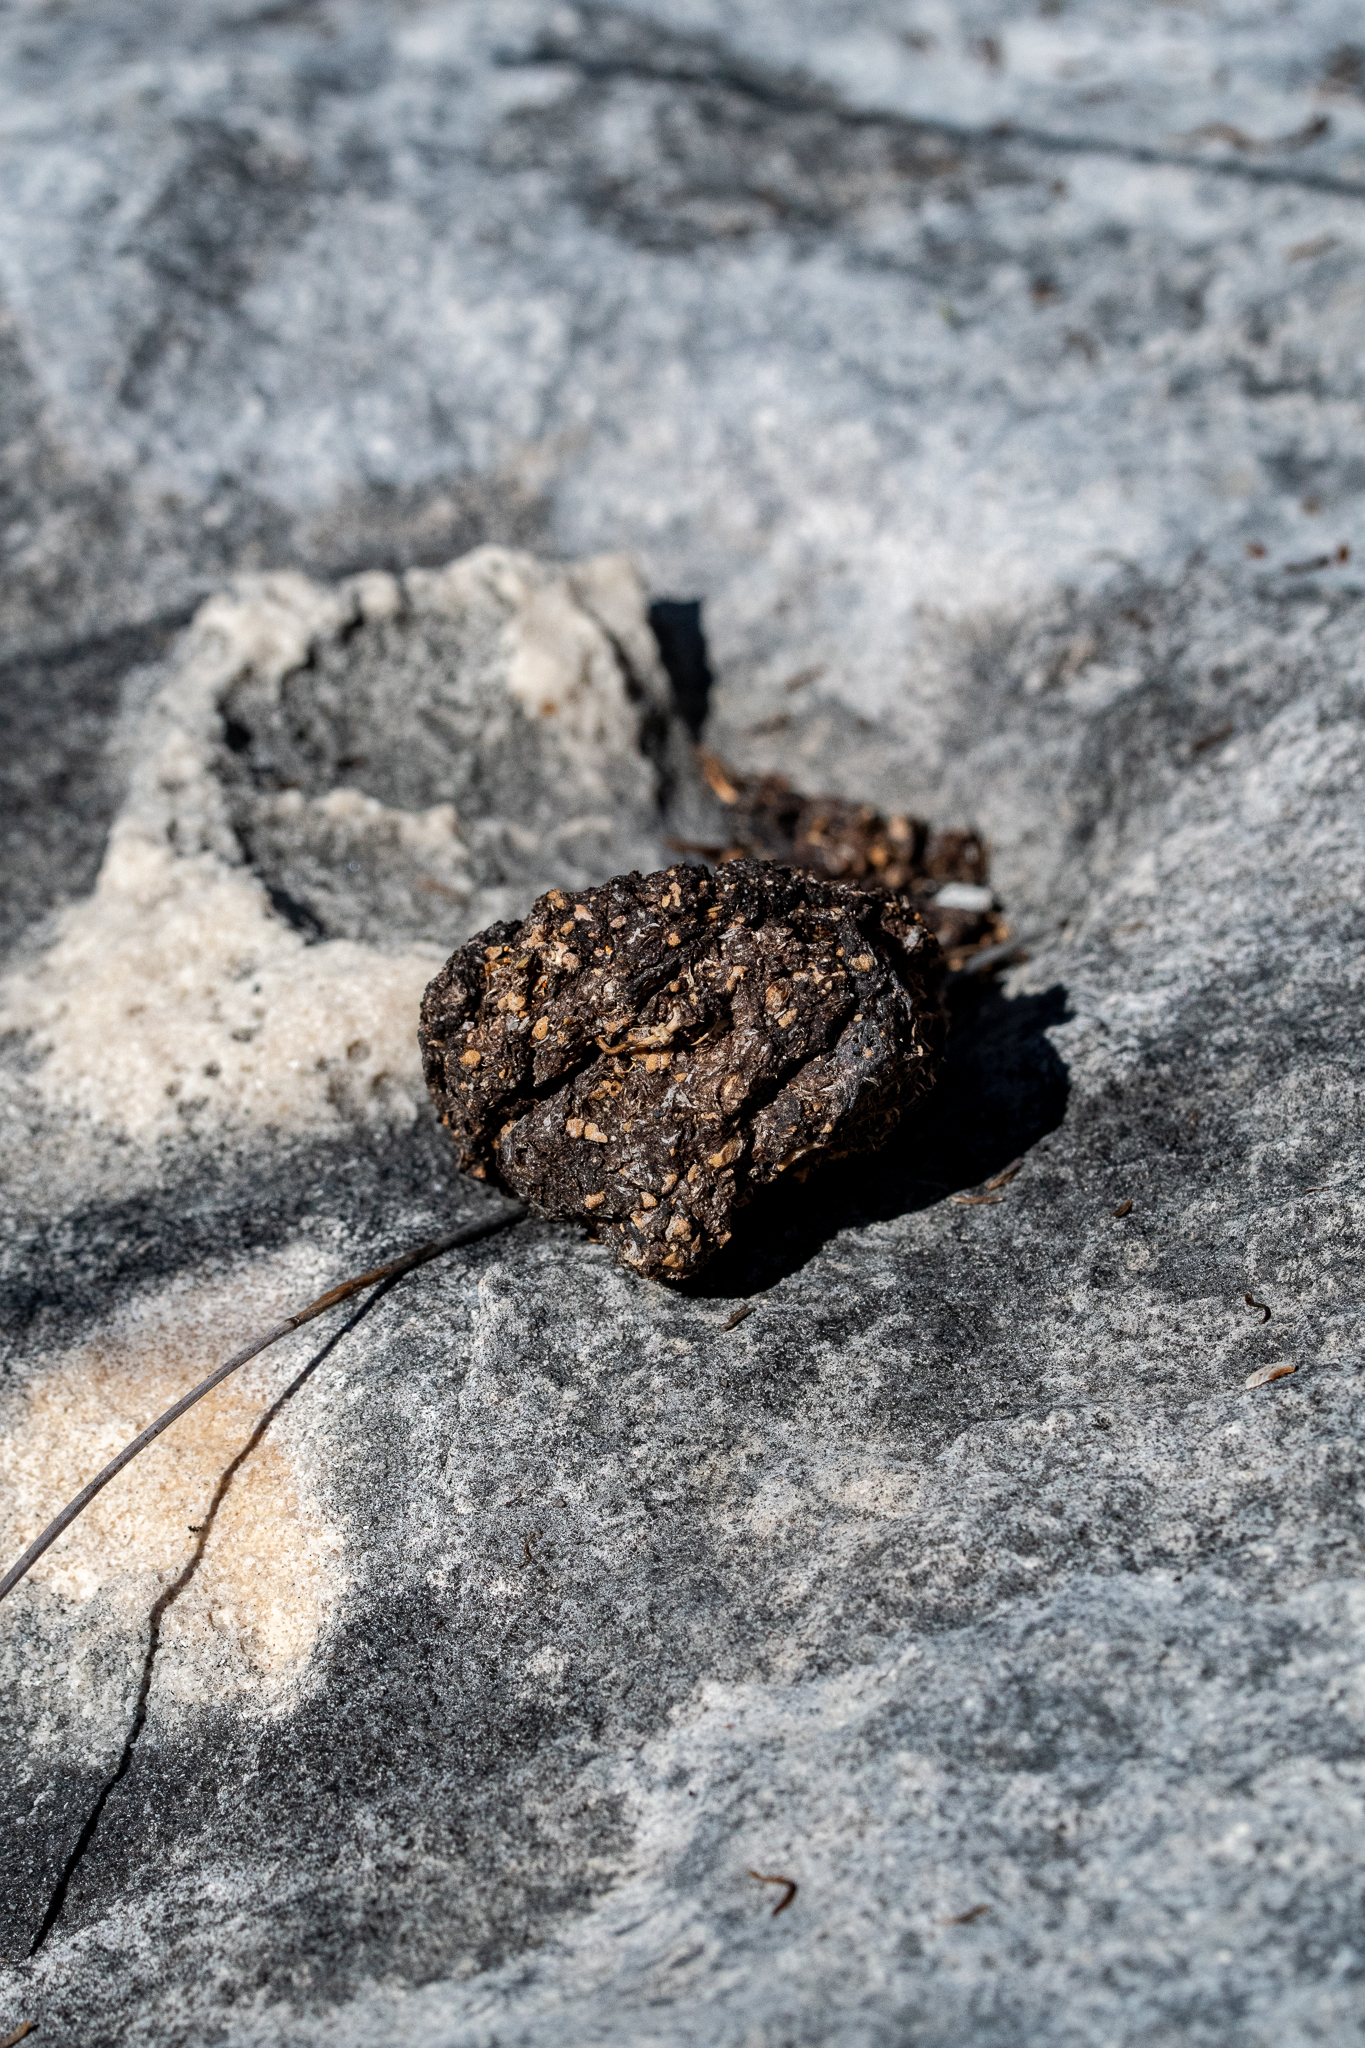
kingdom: Animalia
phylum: Chordata
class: Mammalia
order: Primates
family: Cercopithecidae
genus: Papio
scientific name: Papio ursinus
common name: Chacma baboon
